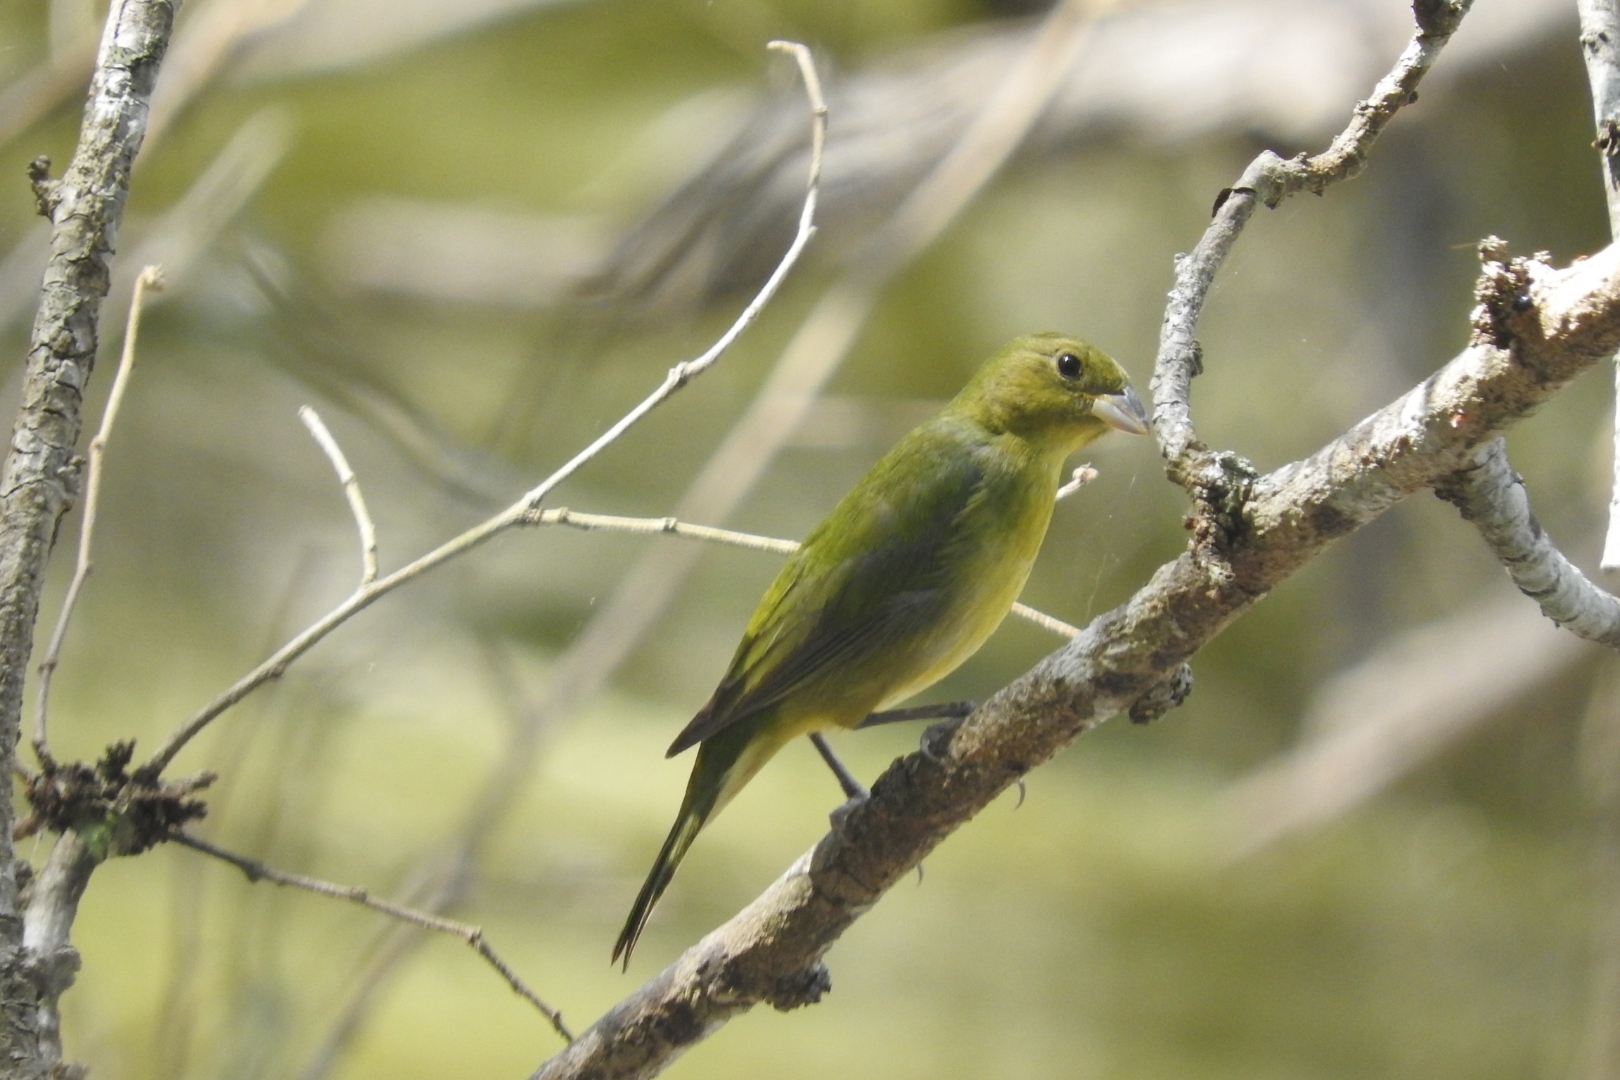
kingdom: Animalia
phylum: Chordata
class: Aves
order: Passeriformes
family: Cardinalidae
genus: Passerina
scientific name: Passerina ciris
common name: Painted bunting
